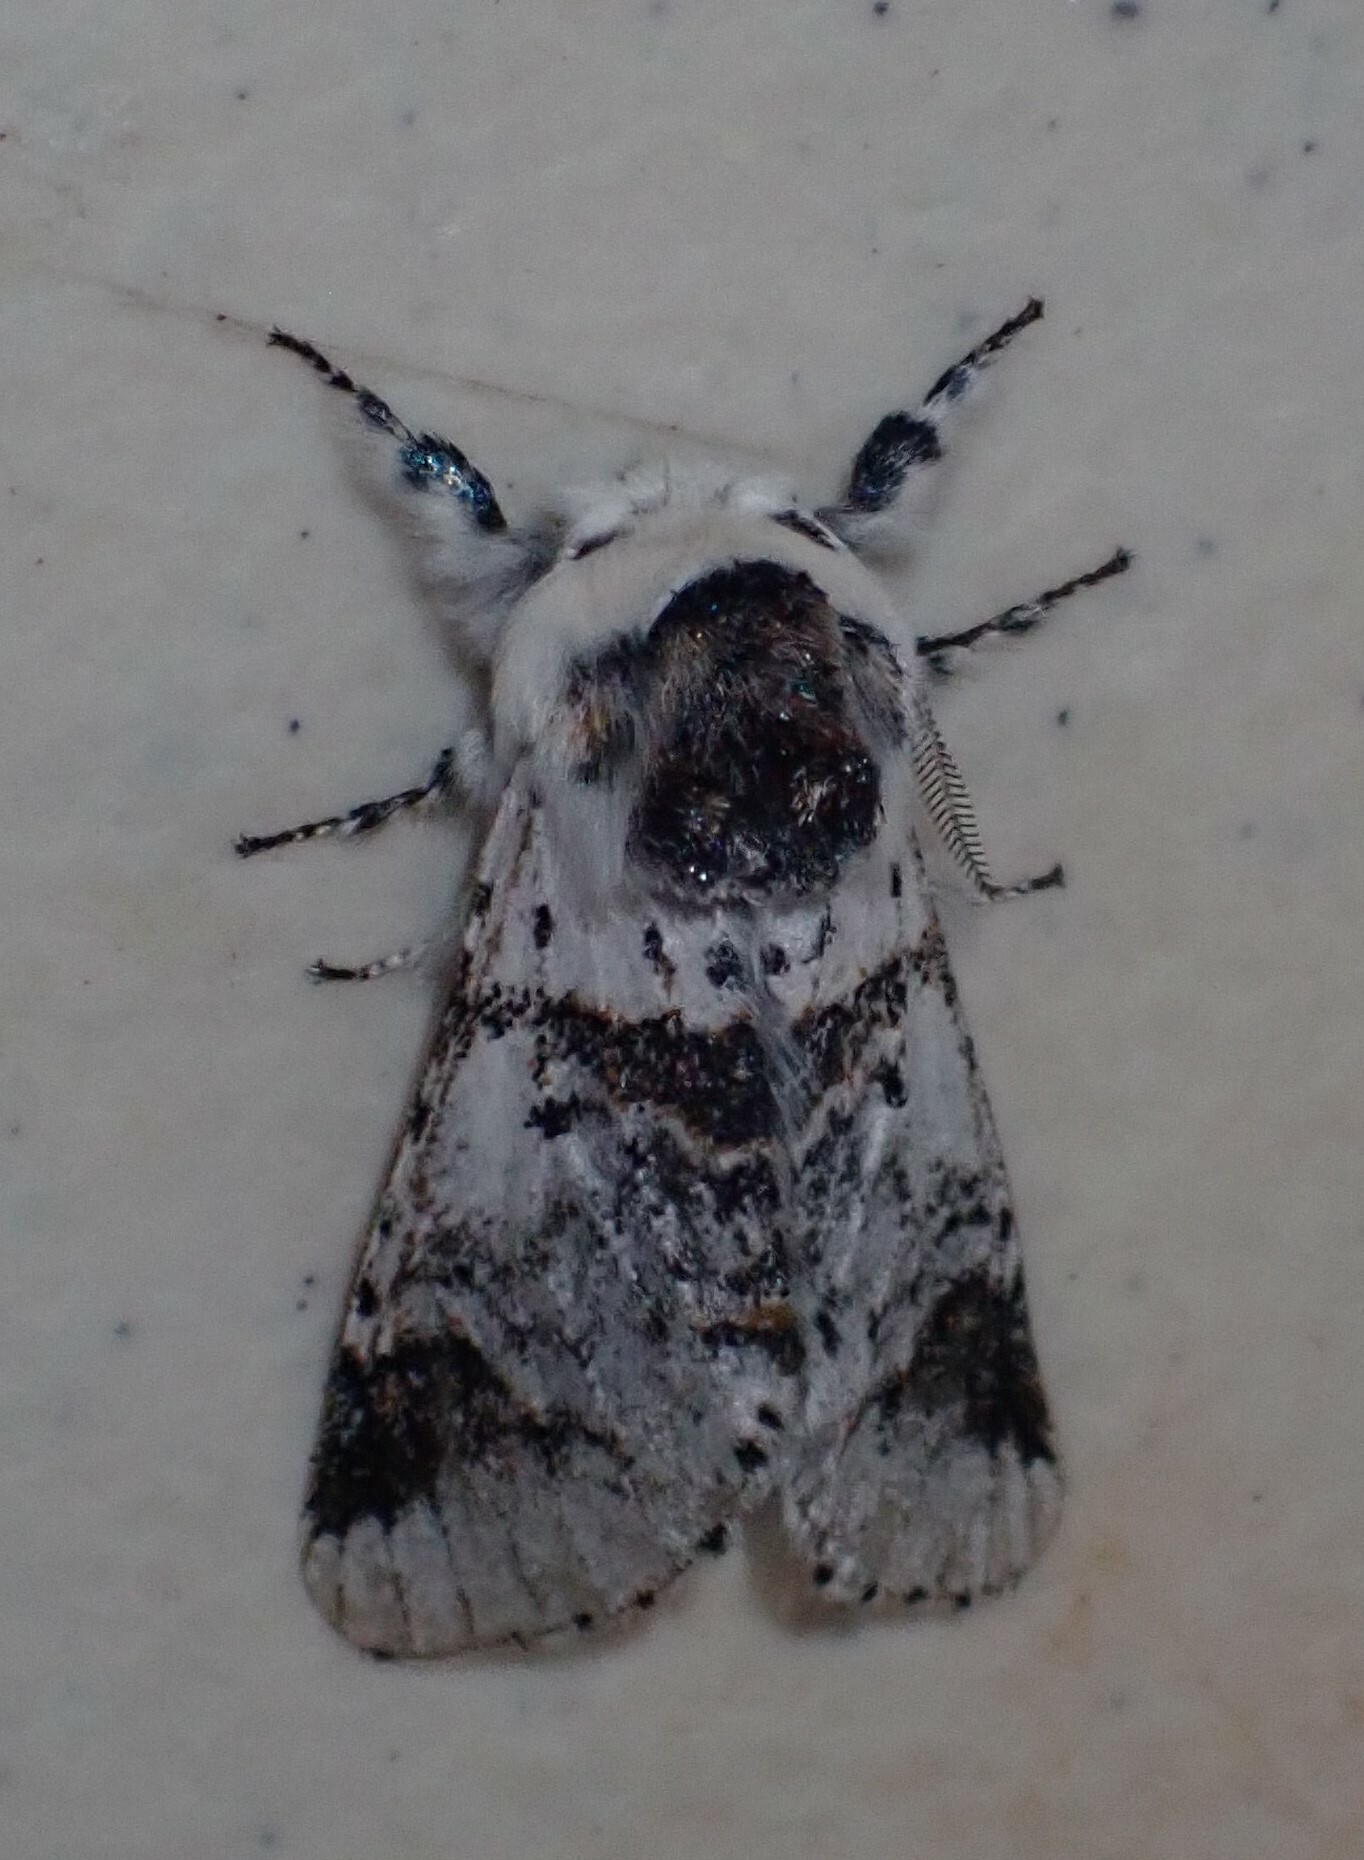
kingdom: Animalia
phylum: Arthropoda
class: Insecta
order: Lepidoptera
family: Notodontidae
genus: Furcula
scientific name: Furcula scolopendrina
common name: Zigzag furcula moth
